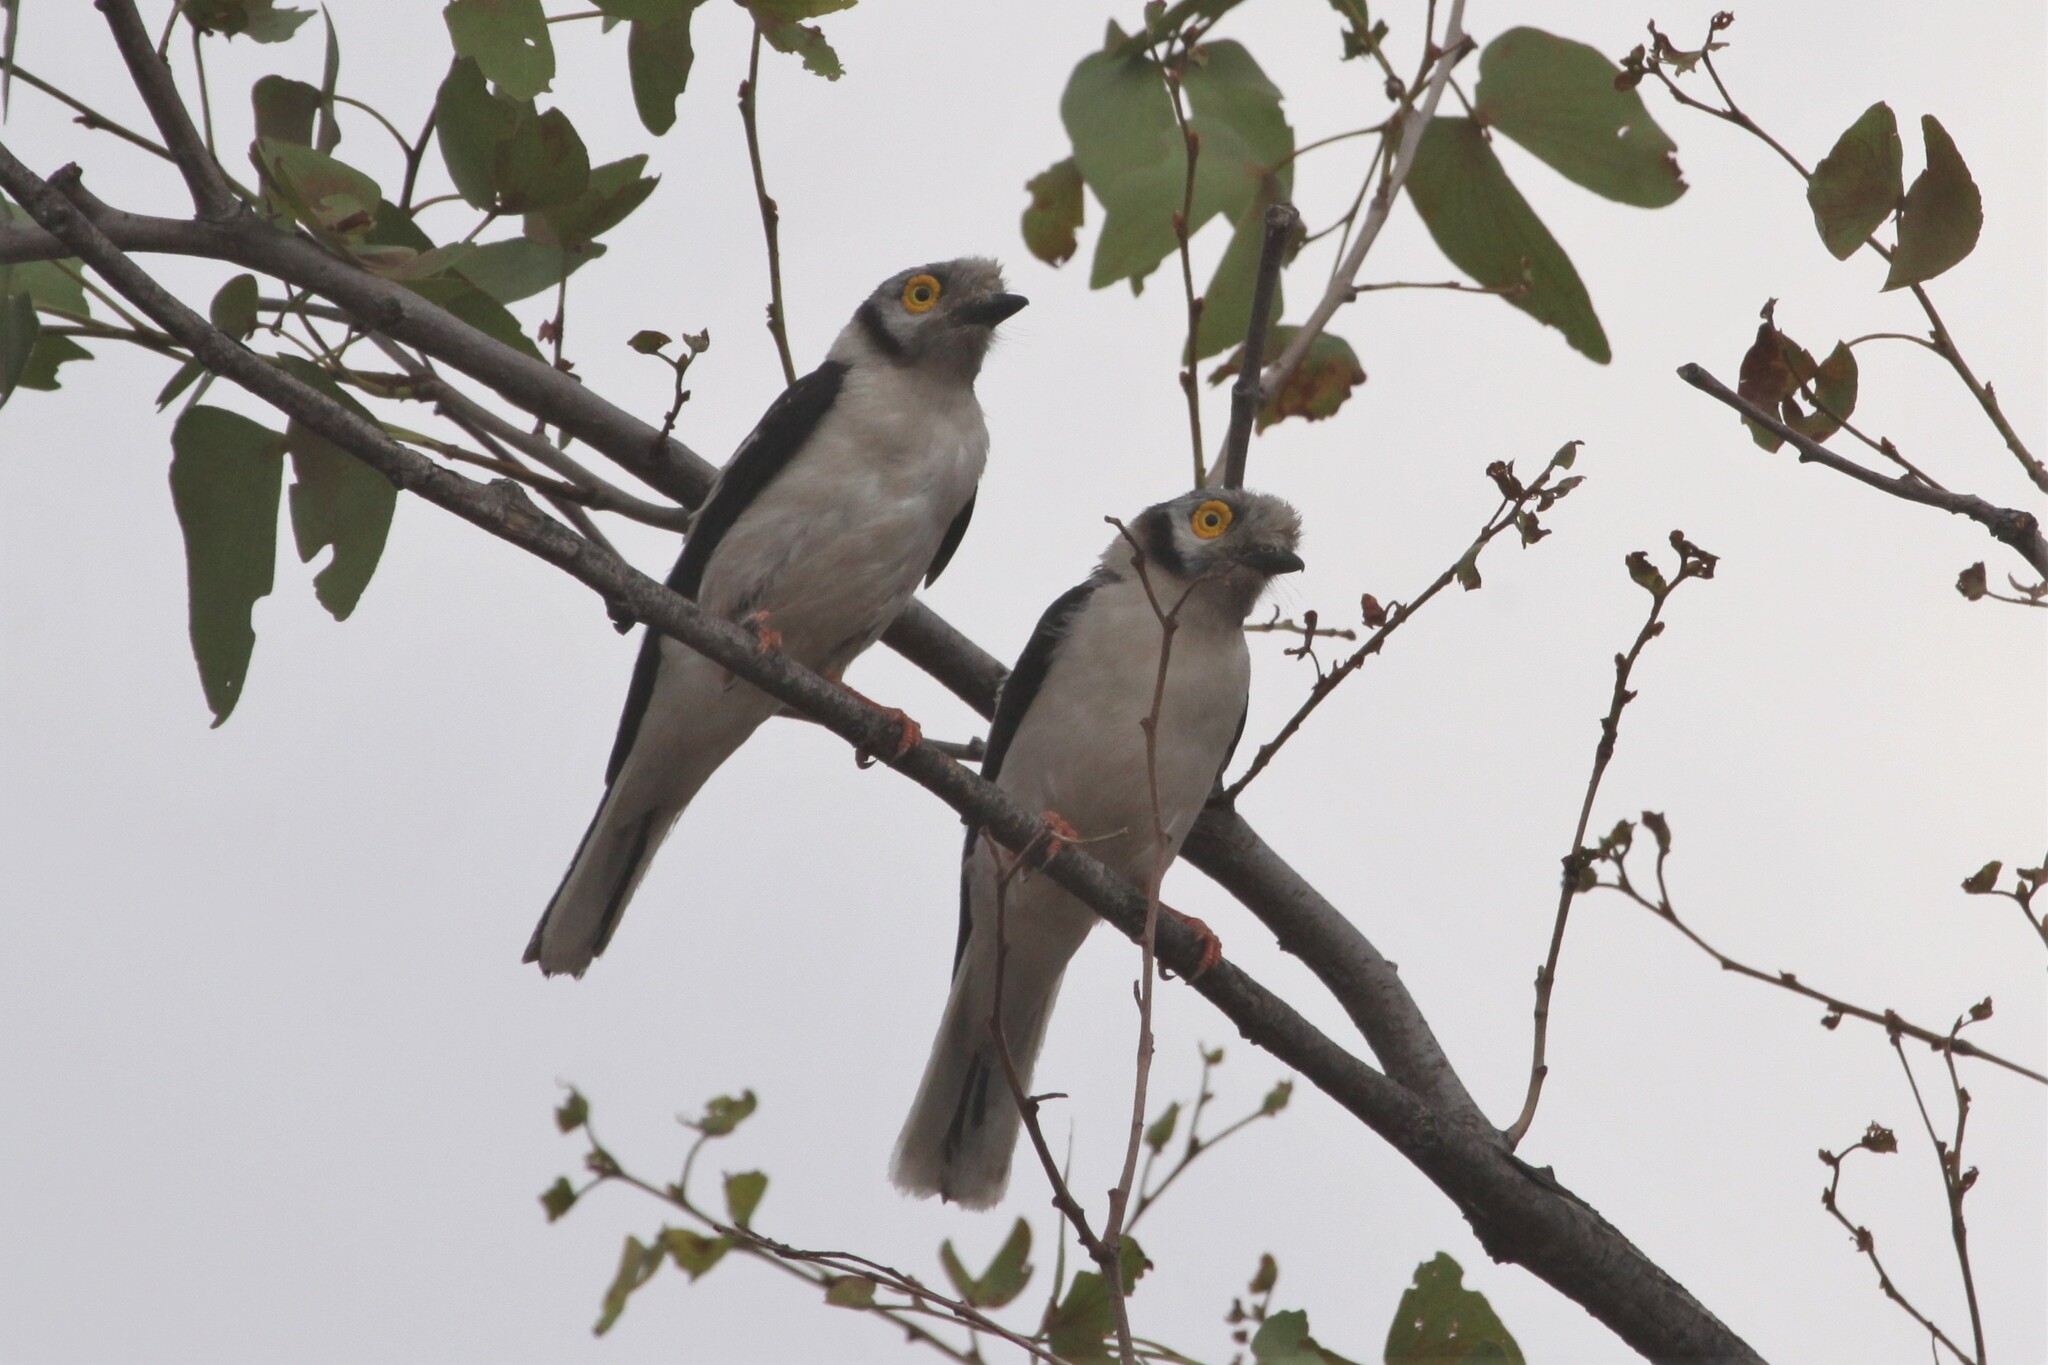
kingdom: Animalia
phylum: Chordata
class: Aves
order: Passeriformes
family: Prionopidae
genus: Prionops
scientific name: Prionops plumatus
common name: White-crested helmetshrike
